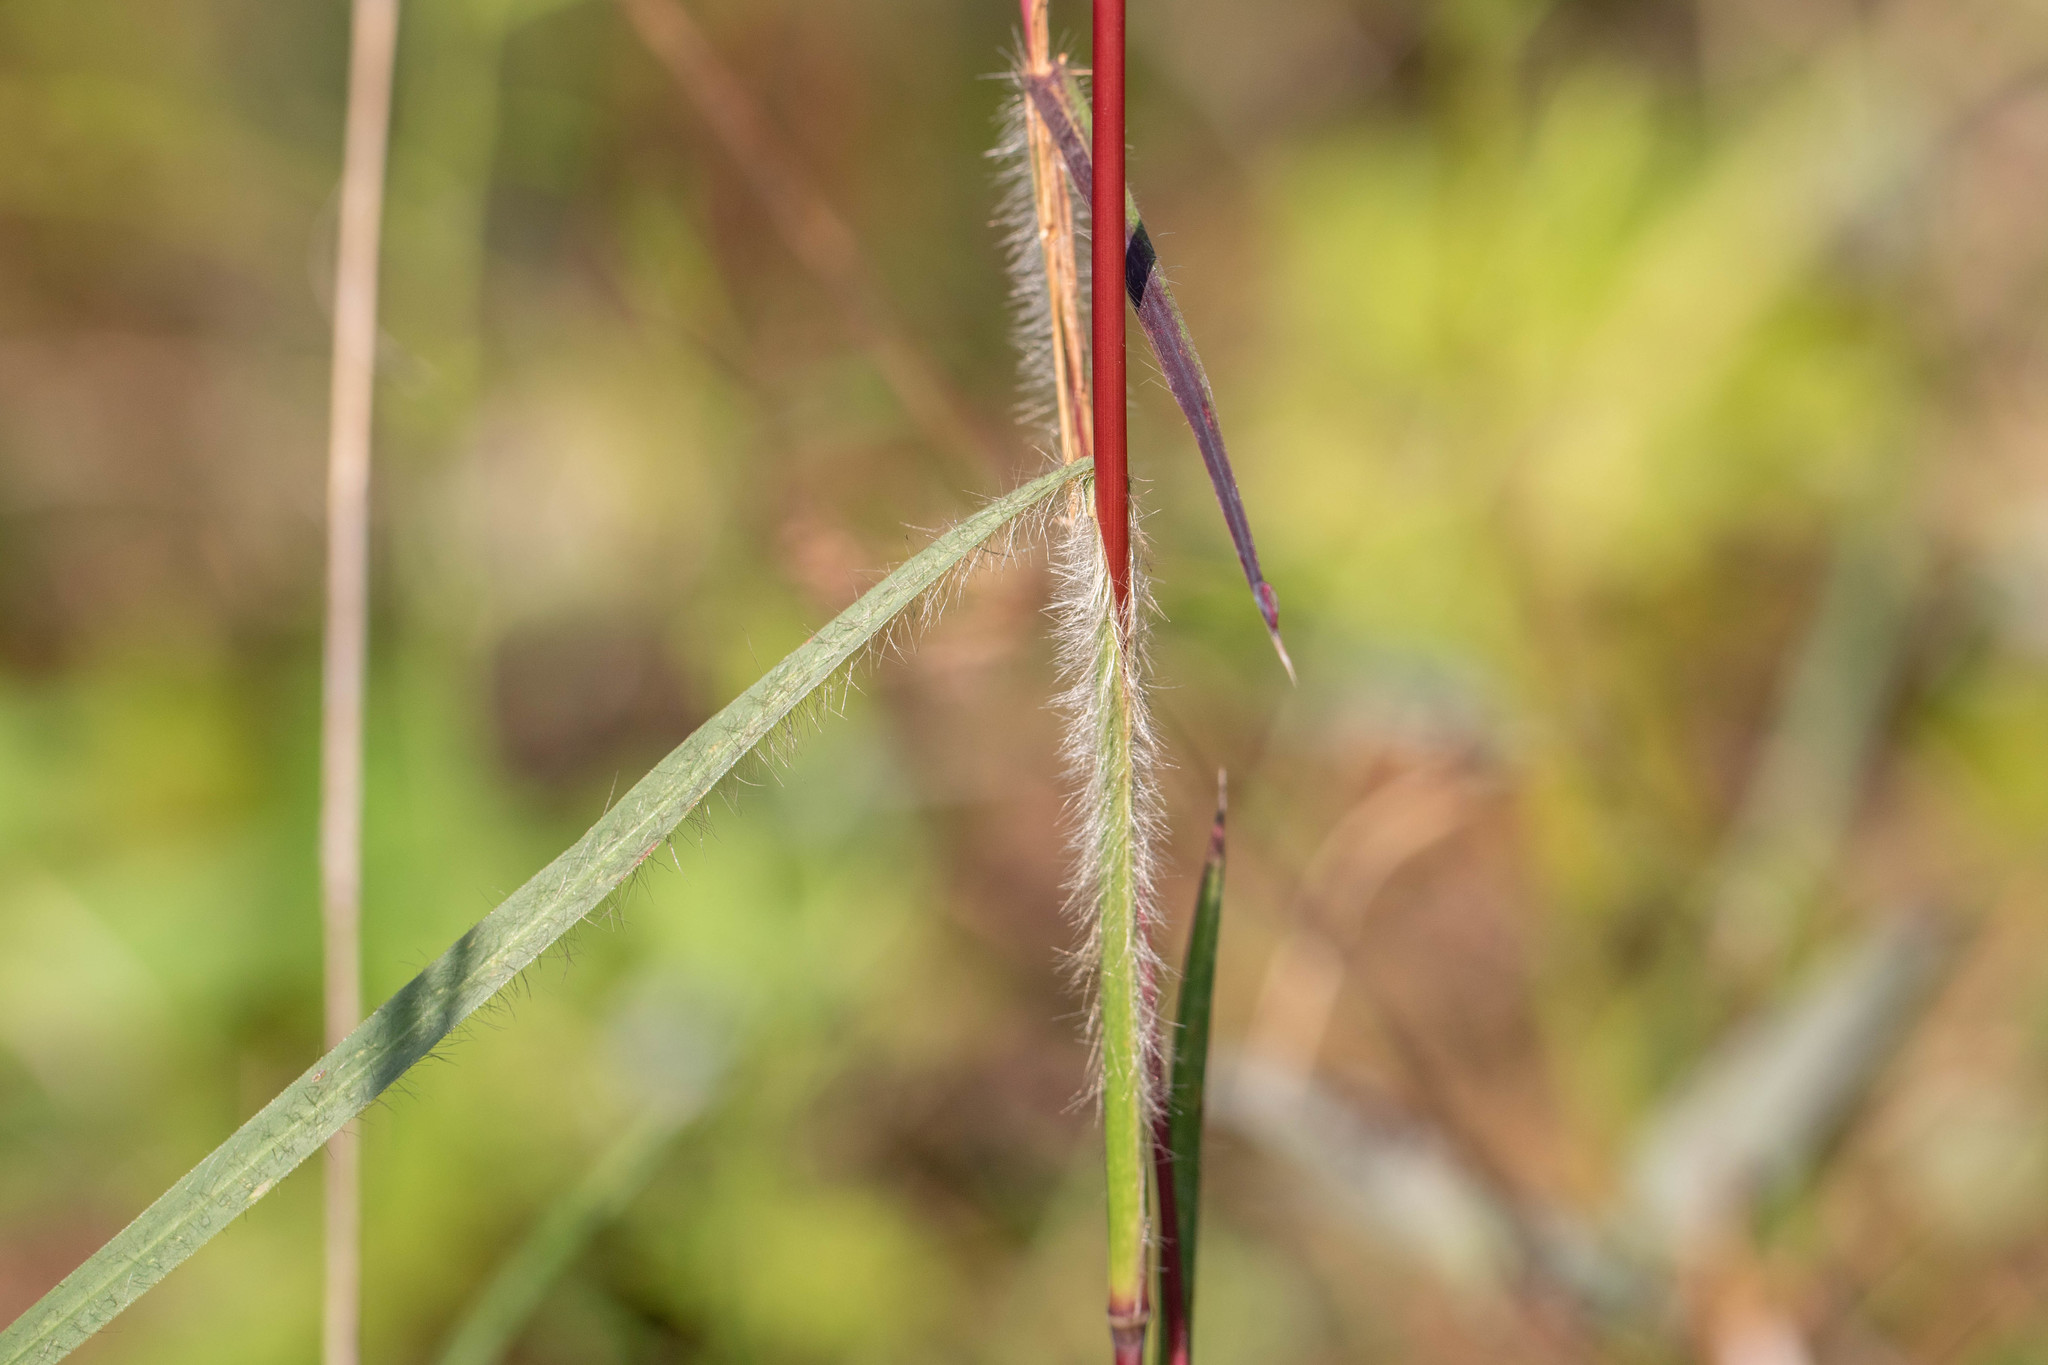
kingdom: Plantae
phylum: Tracheophyta
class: Liliopsida
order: Poales
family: Poaceae
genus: Schizachyrium
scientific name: Schizachyrium scoparium
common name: Little bluestem
